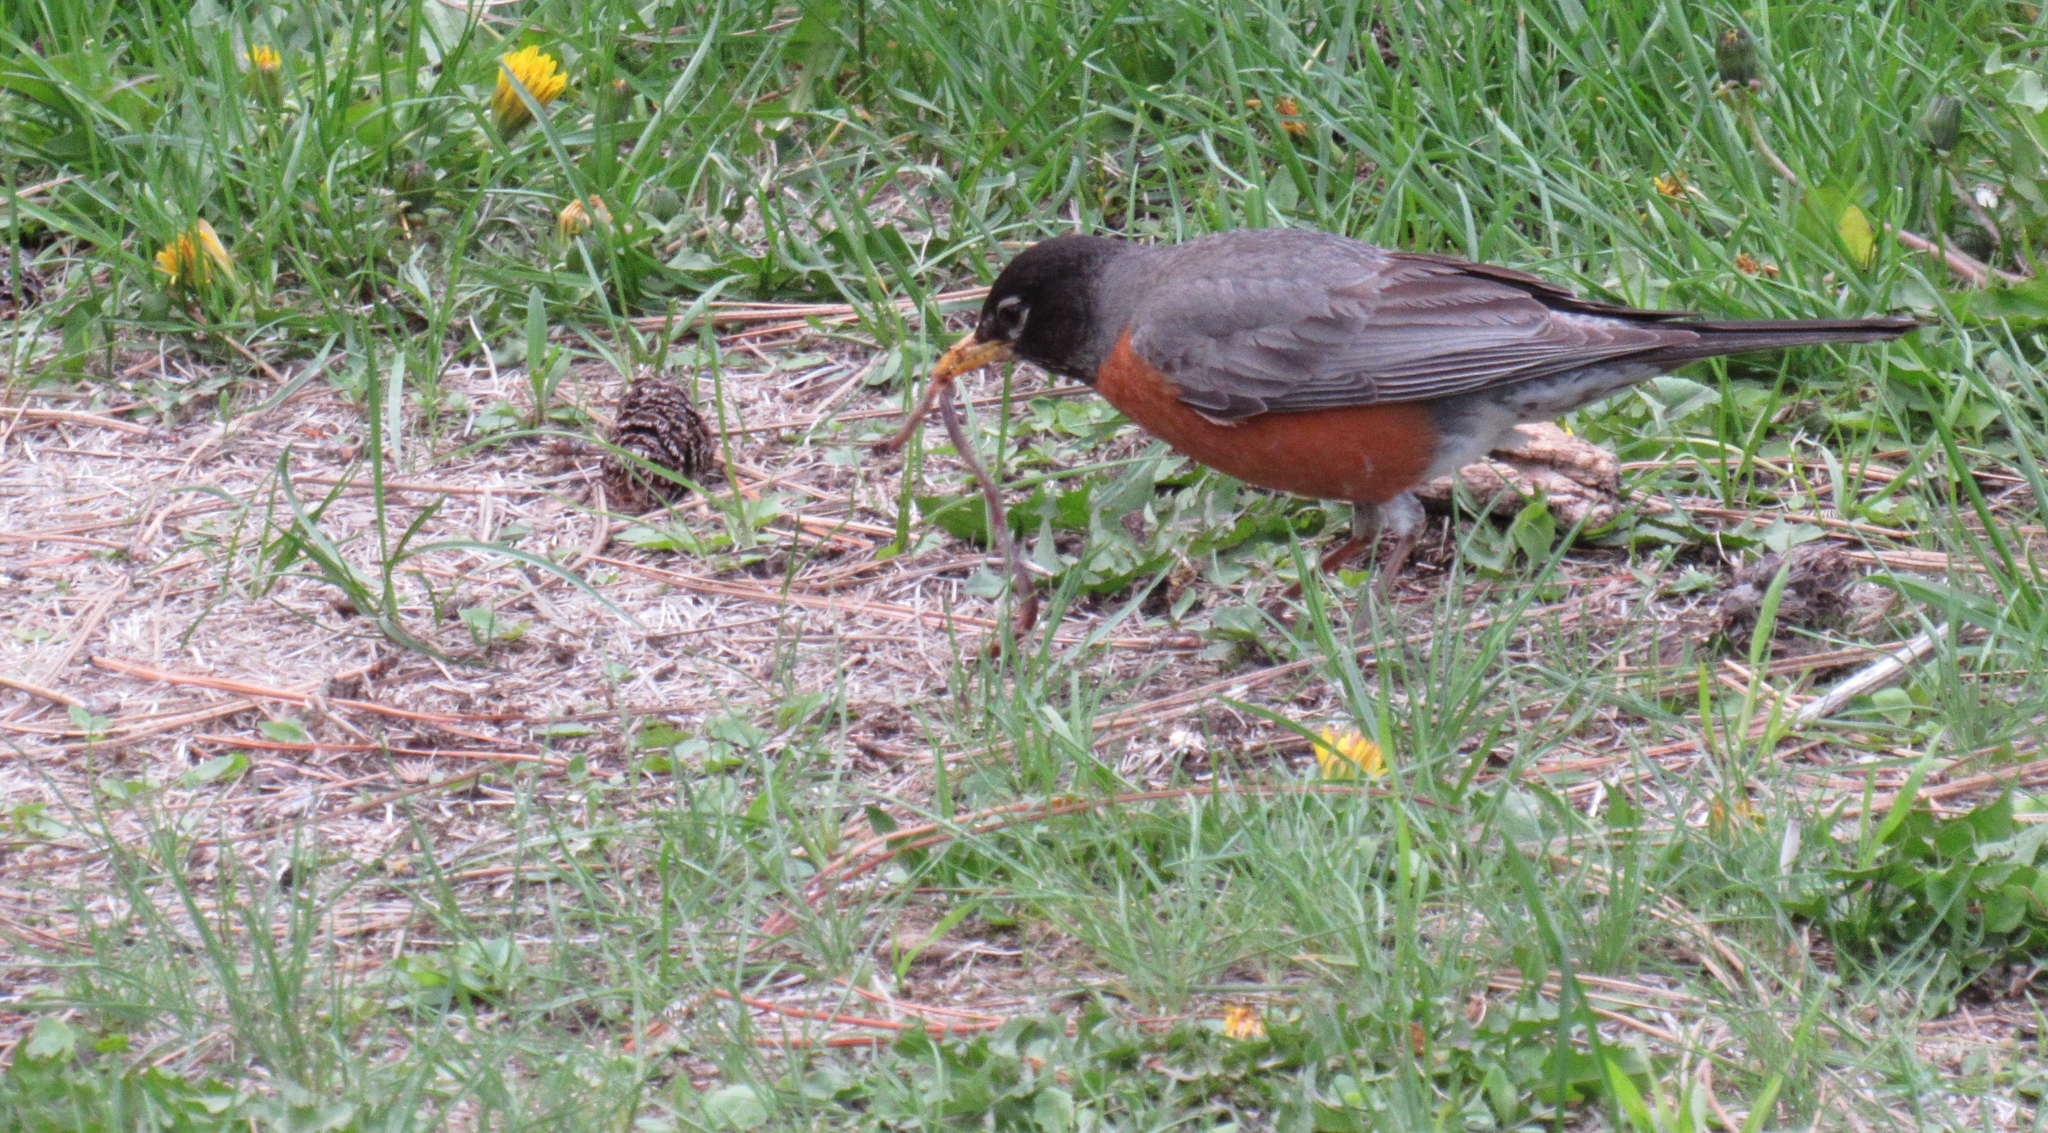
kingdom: Animalia
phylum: Chordata
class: Aves
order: Passeriformes
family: Turdidae
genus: Turdus
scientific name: Turdus migratorius
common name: American robin
